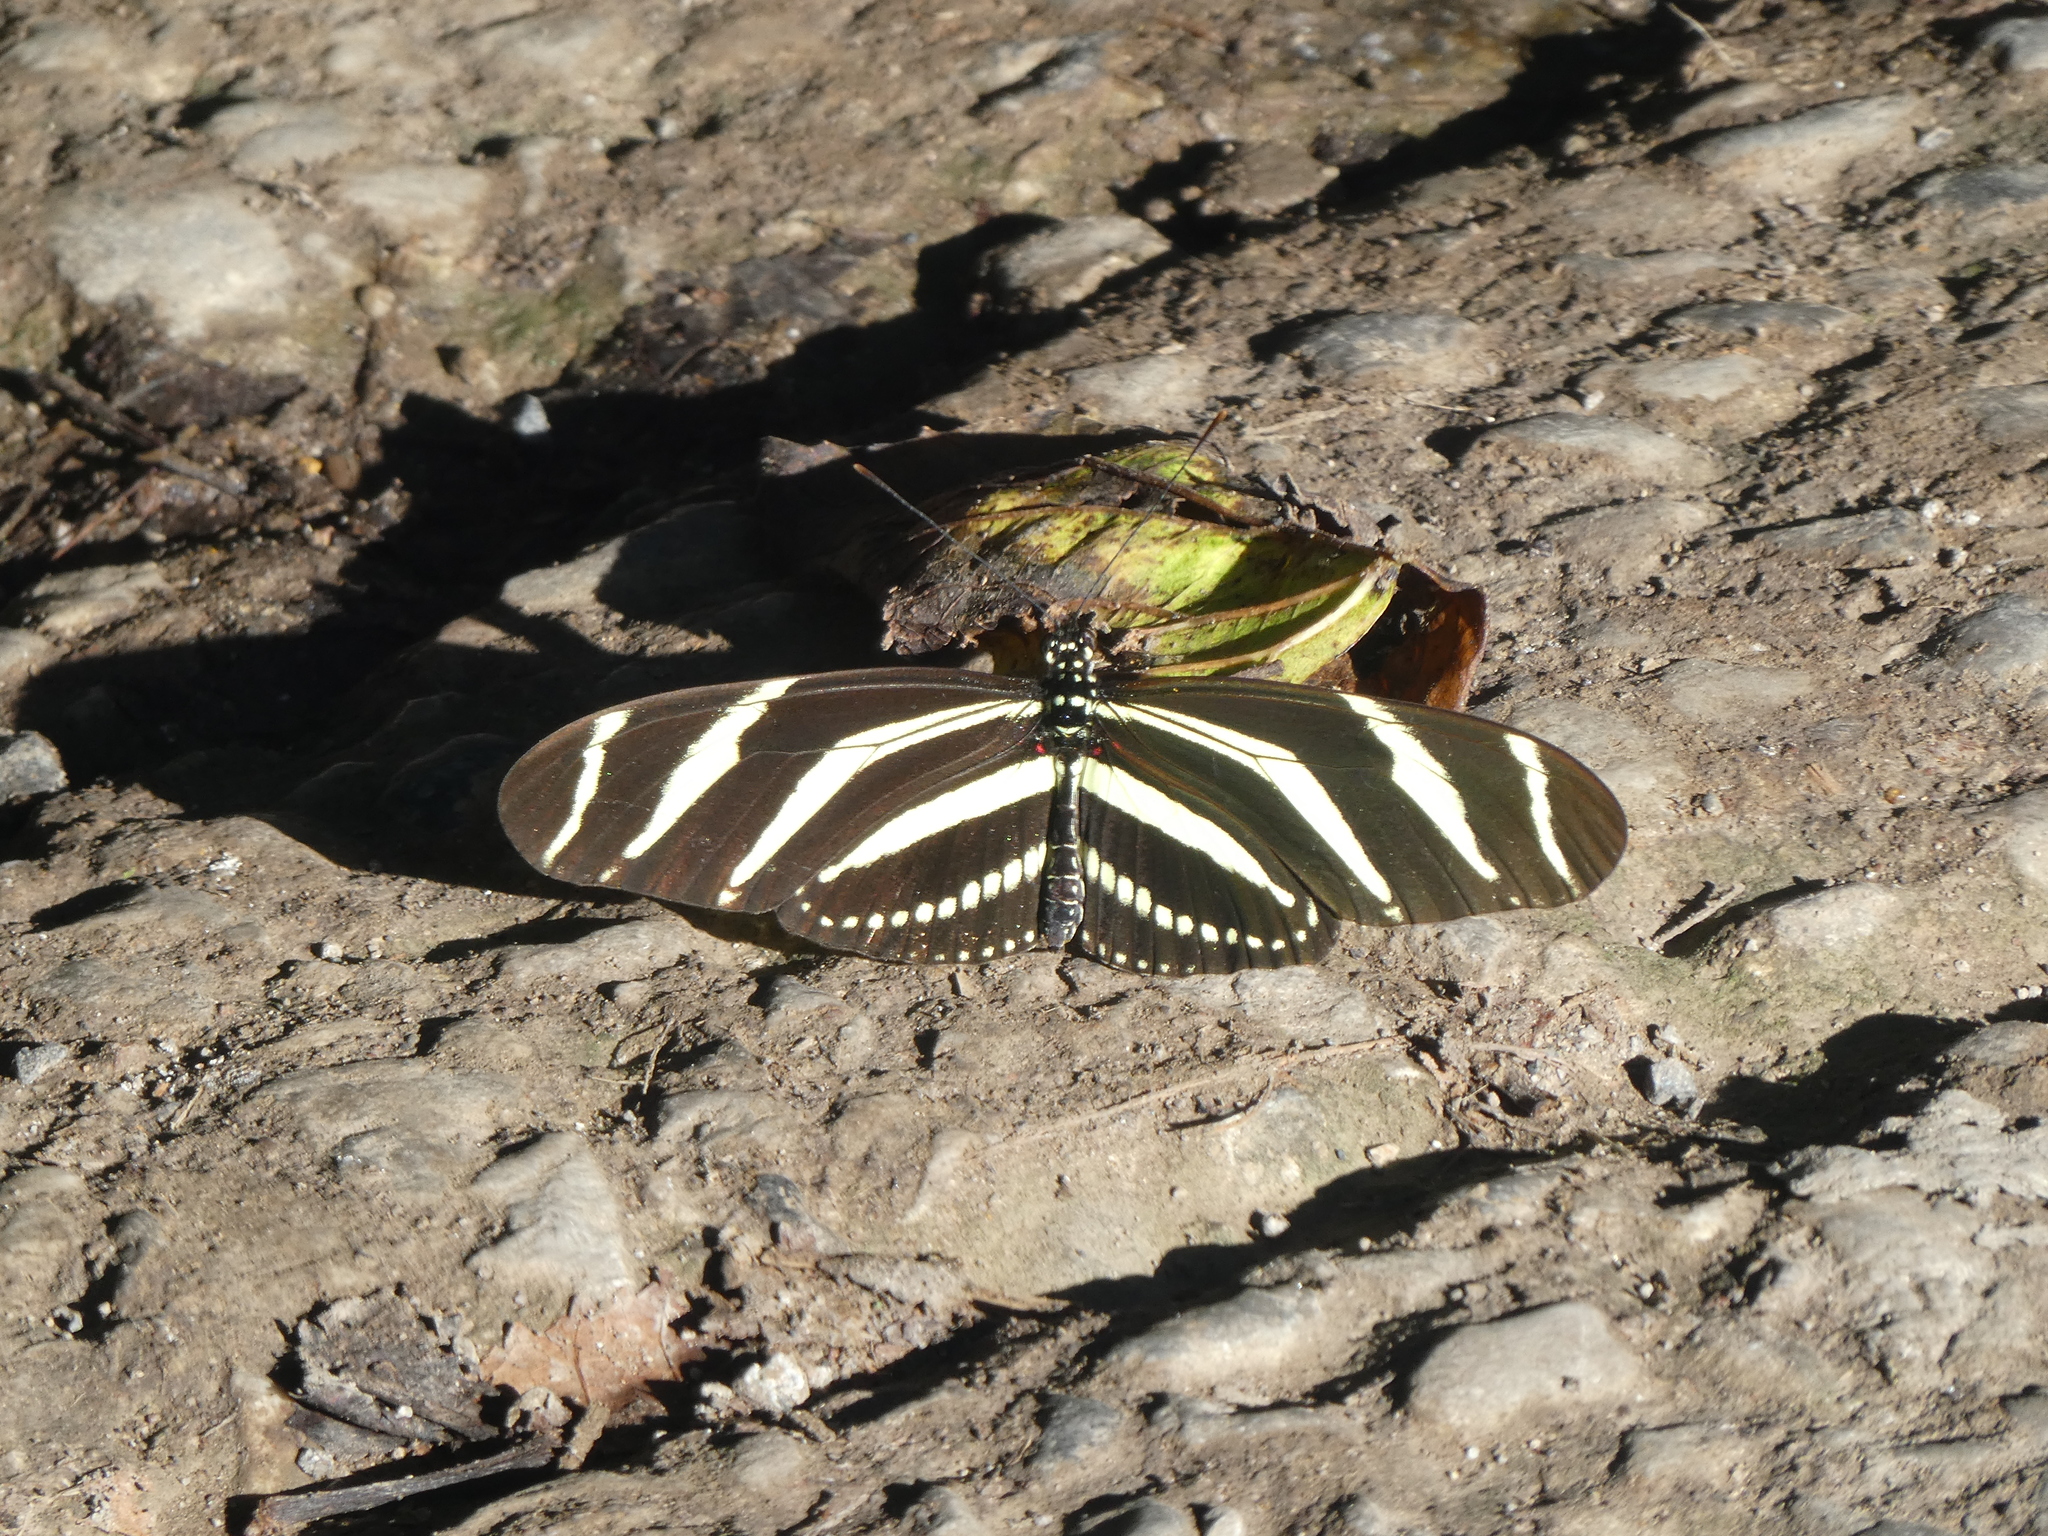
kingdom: Animalia
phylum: Arthropoda
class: Insecta
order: Lepidoptera
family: Nymphalidae
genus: Heliconius
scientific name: Heliconius charithonia
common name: Zebra long wing
